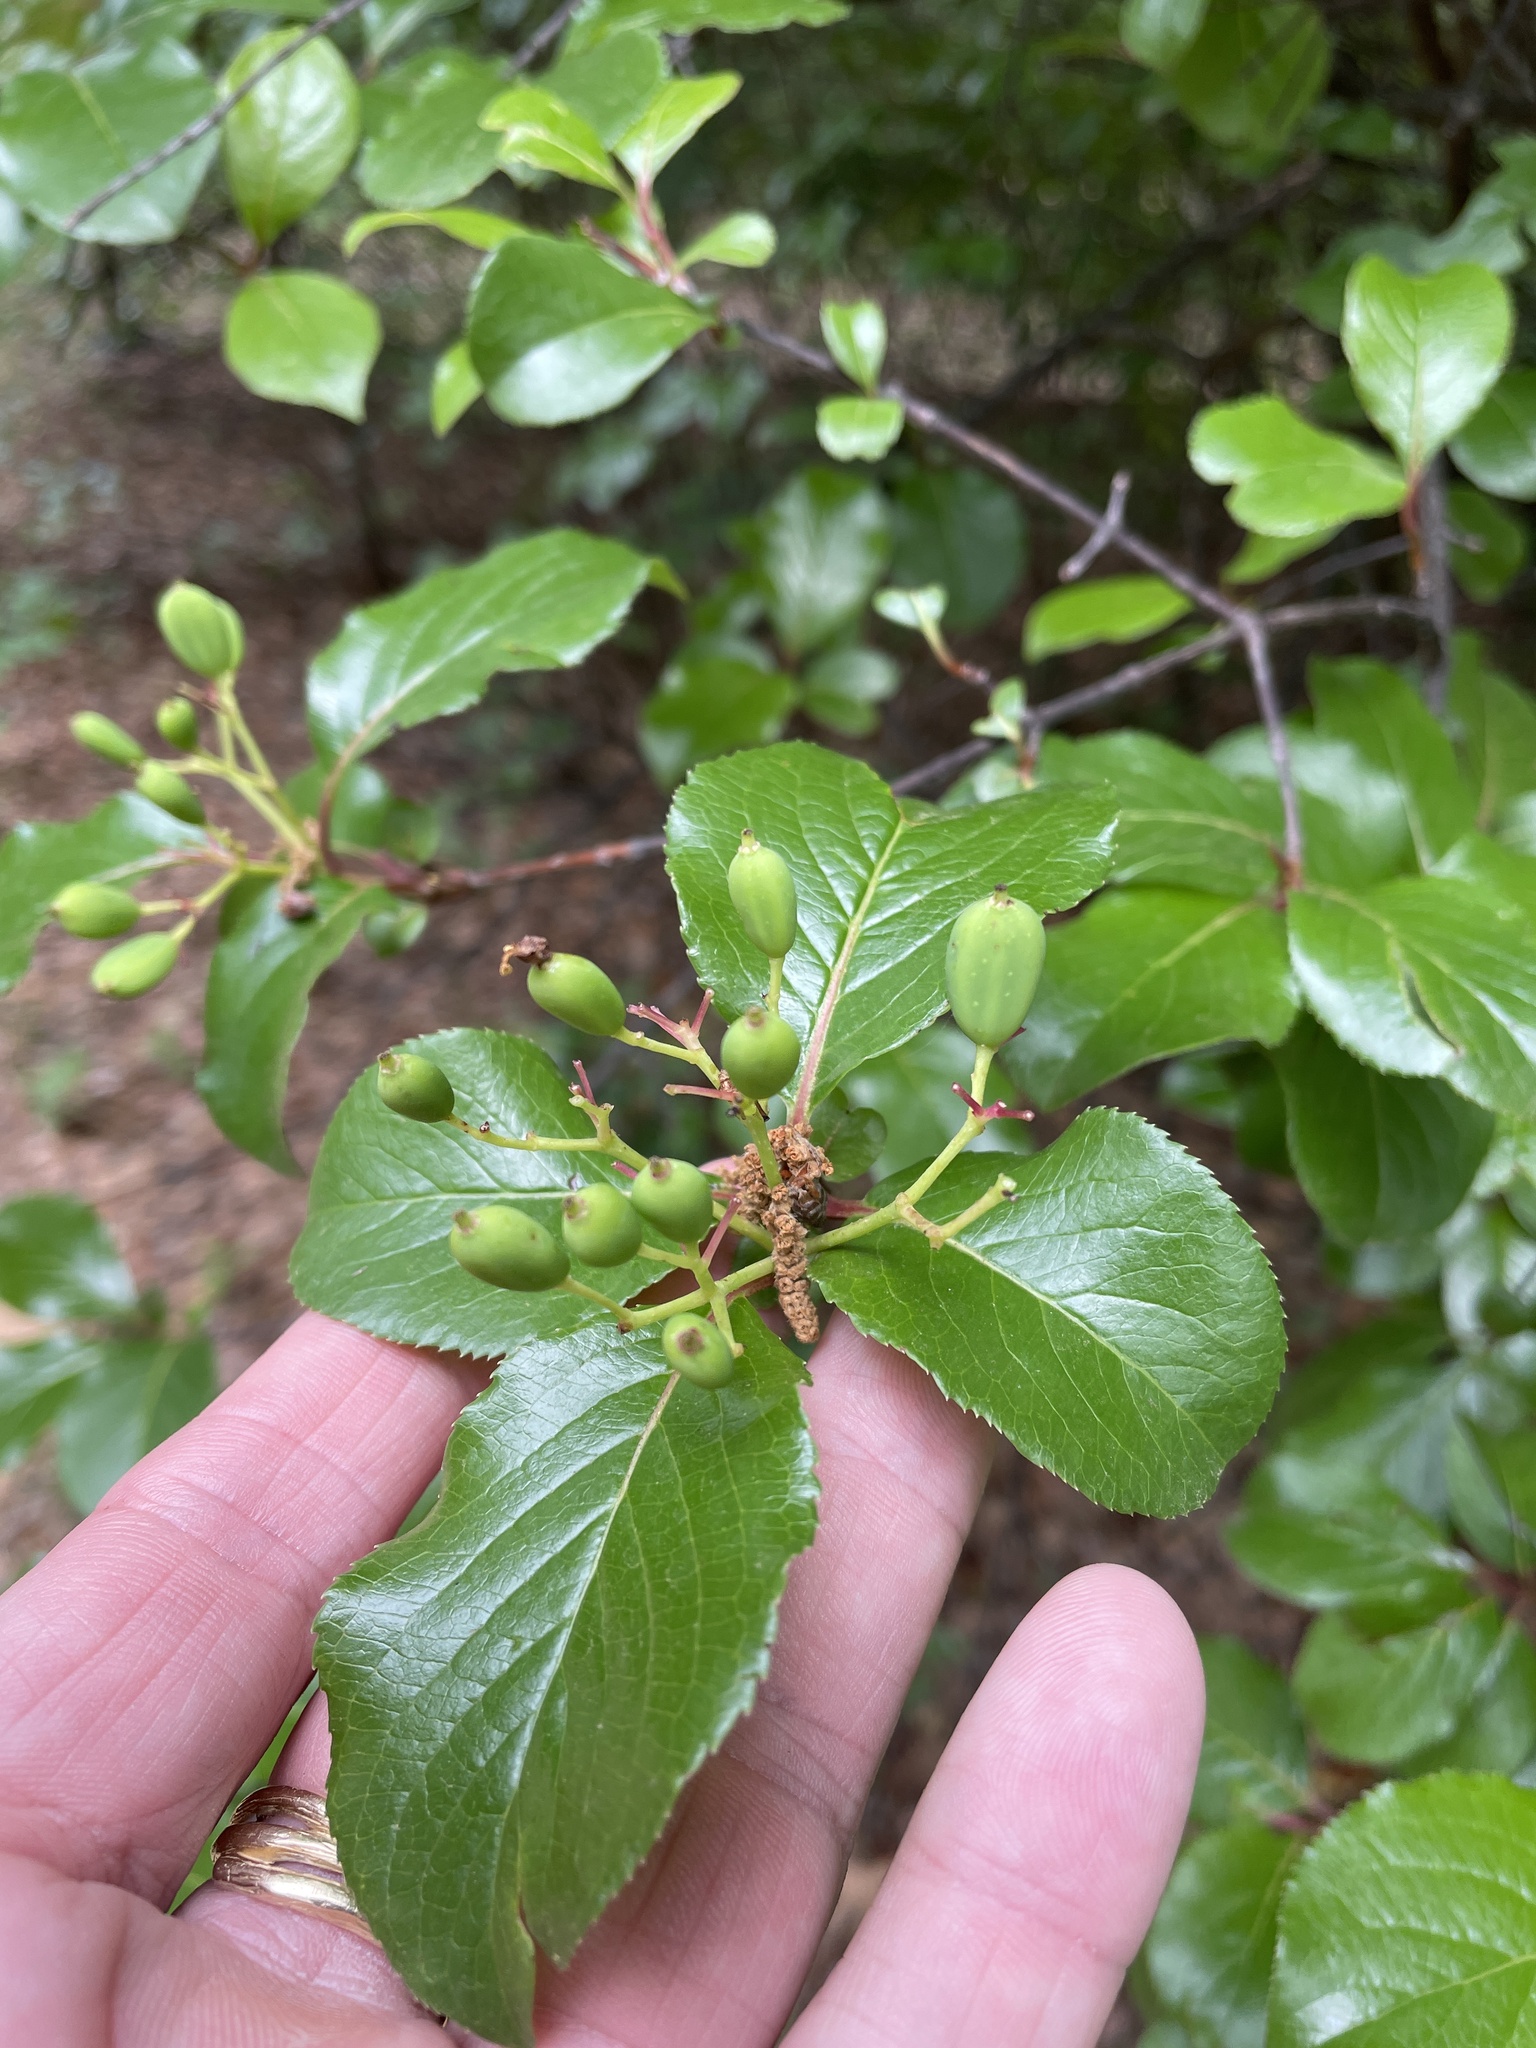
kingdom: Plantae
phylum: Tracheophyta
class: Magnoliopsida
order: Dipsacales
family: Viburnaceae
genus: Viburnum
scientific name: Viburnum rufidulum
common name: Blue haw
